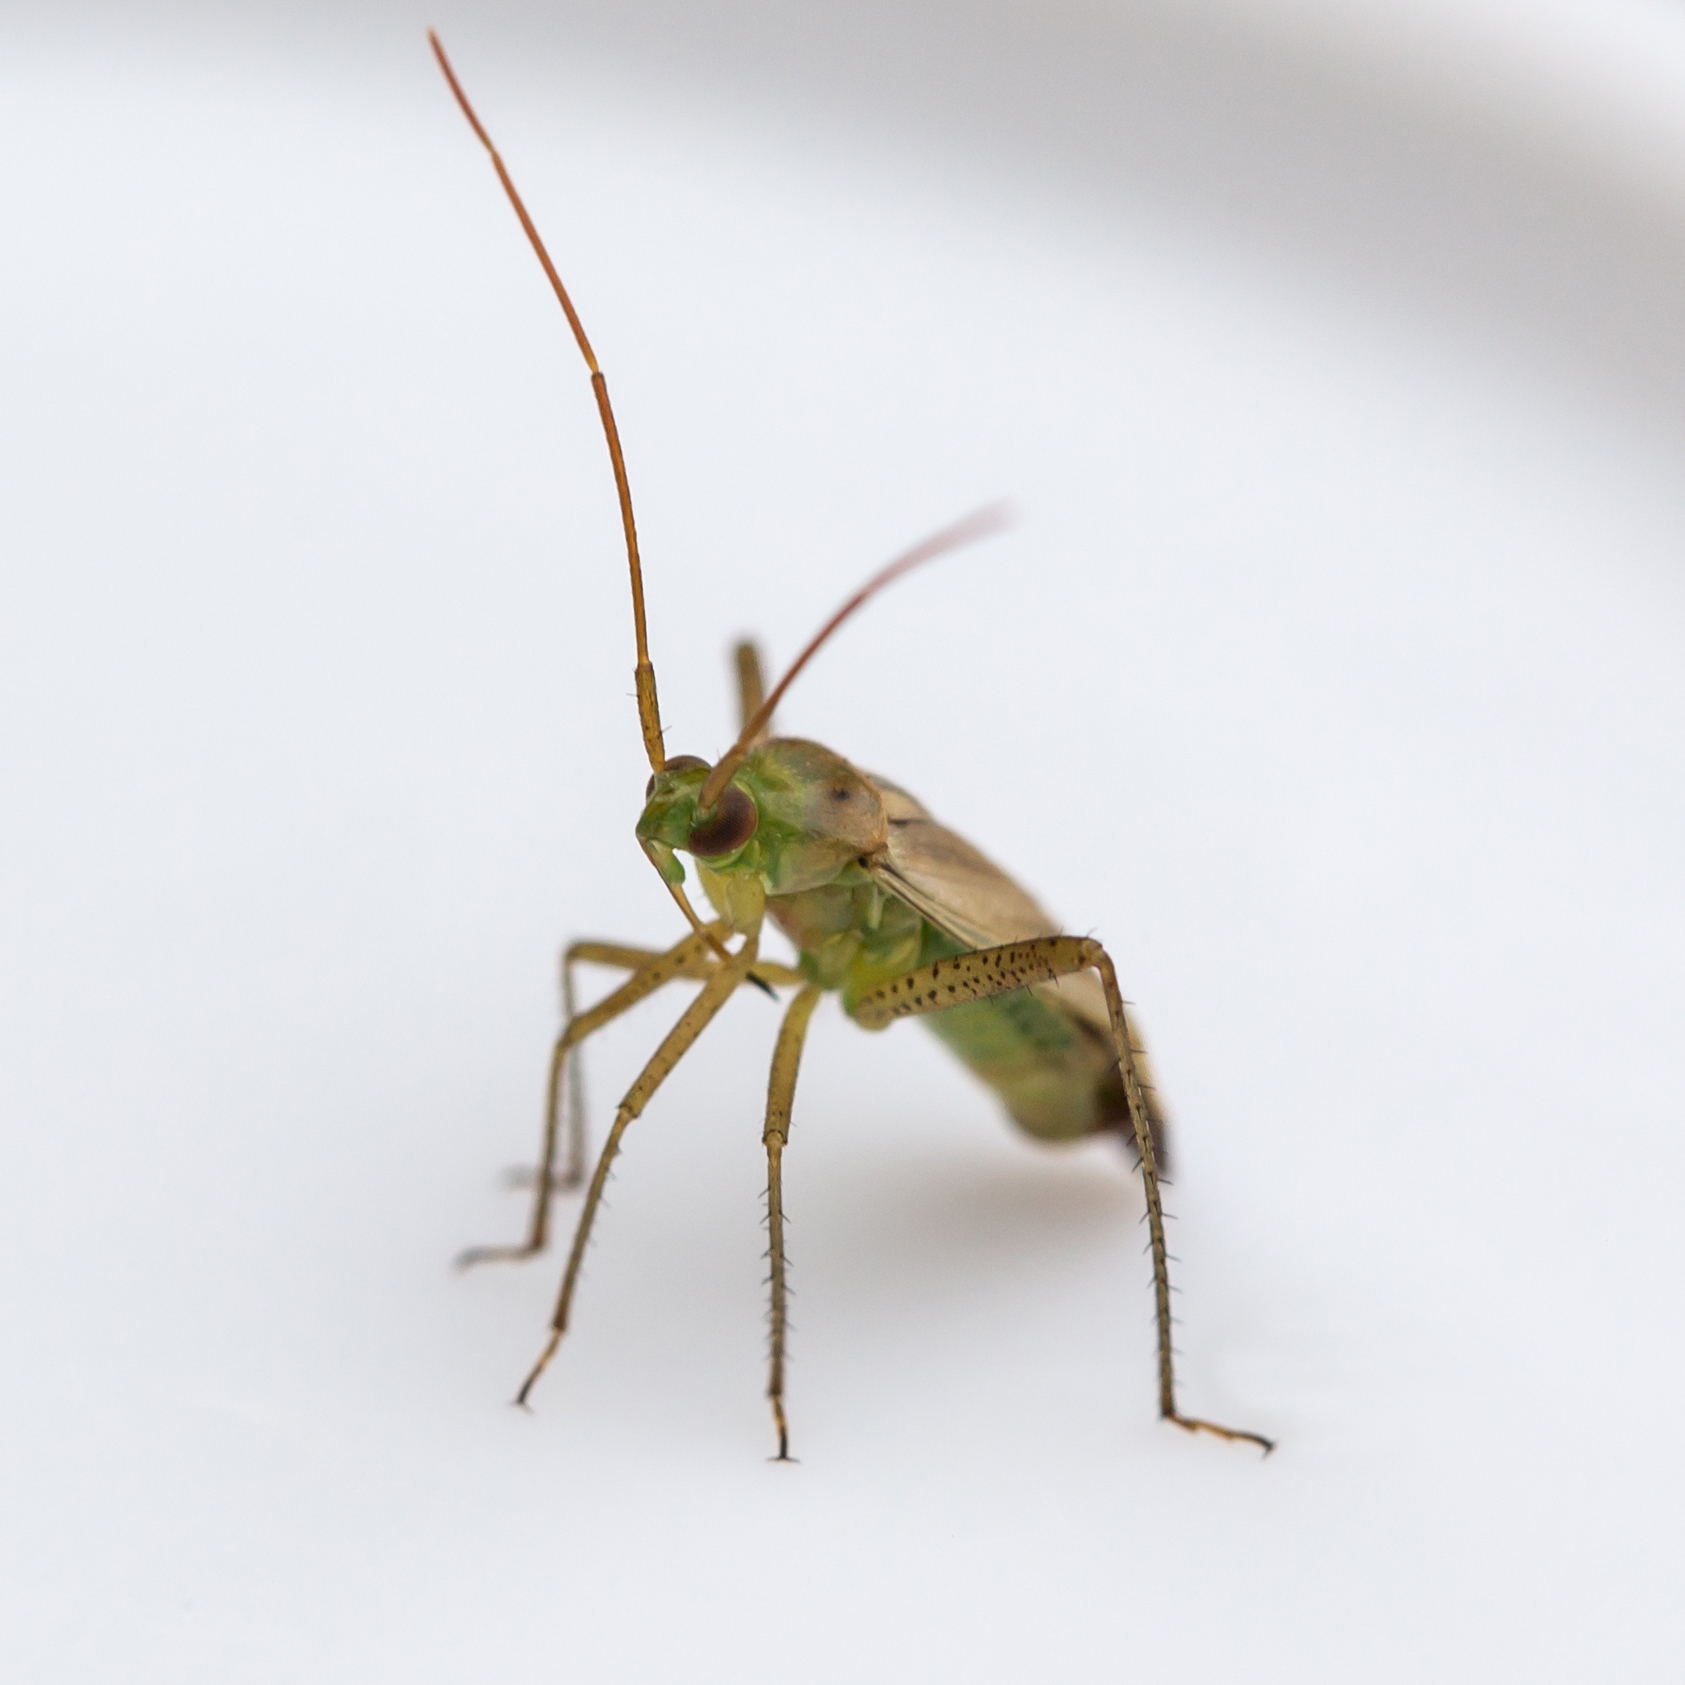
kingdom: Animalia
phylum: Arthropoda
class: Insecta
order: Hemiptera
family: Miridae
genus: Adelphocoris
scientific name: Adelphocoris lineolatus
